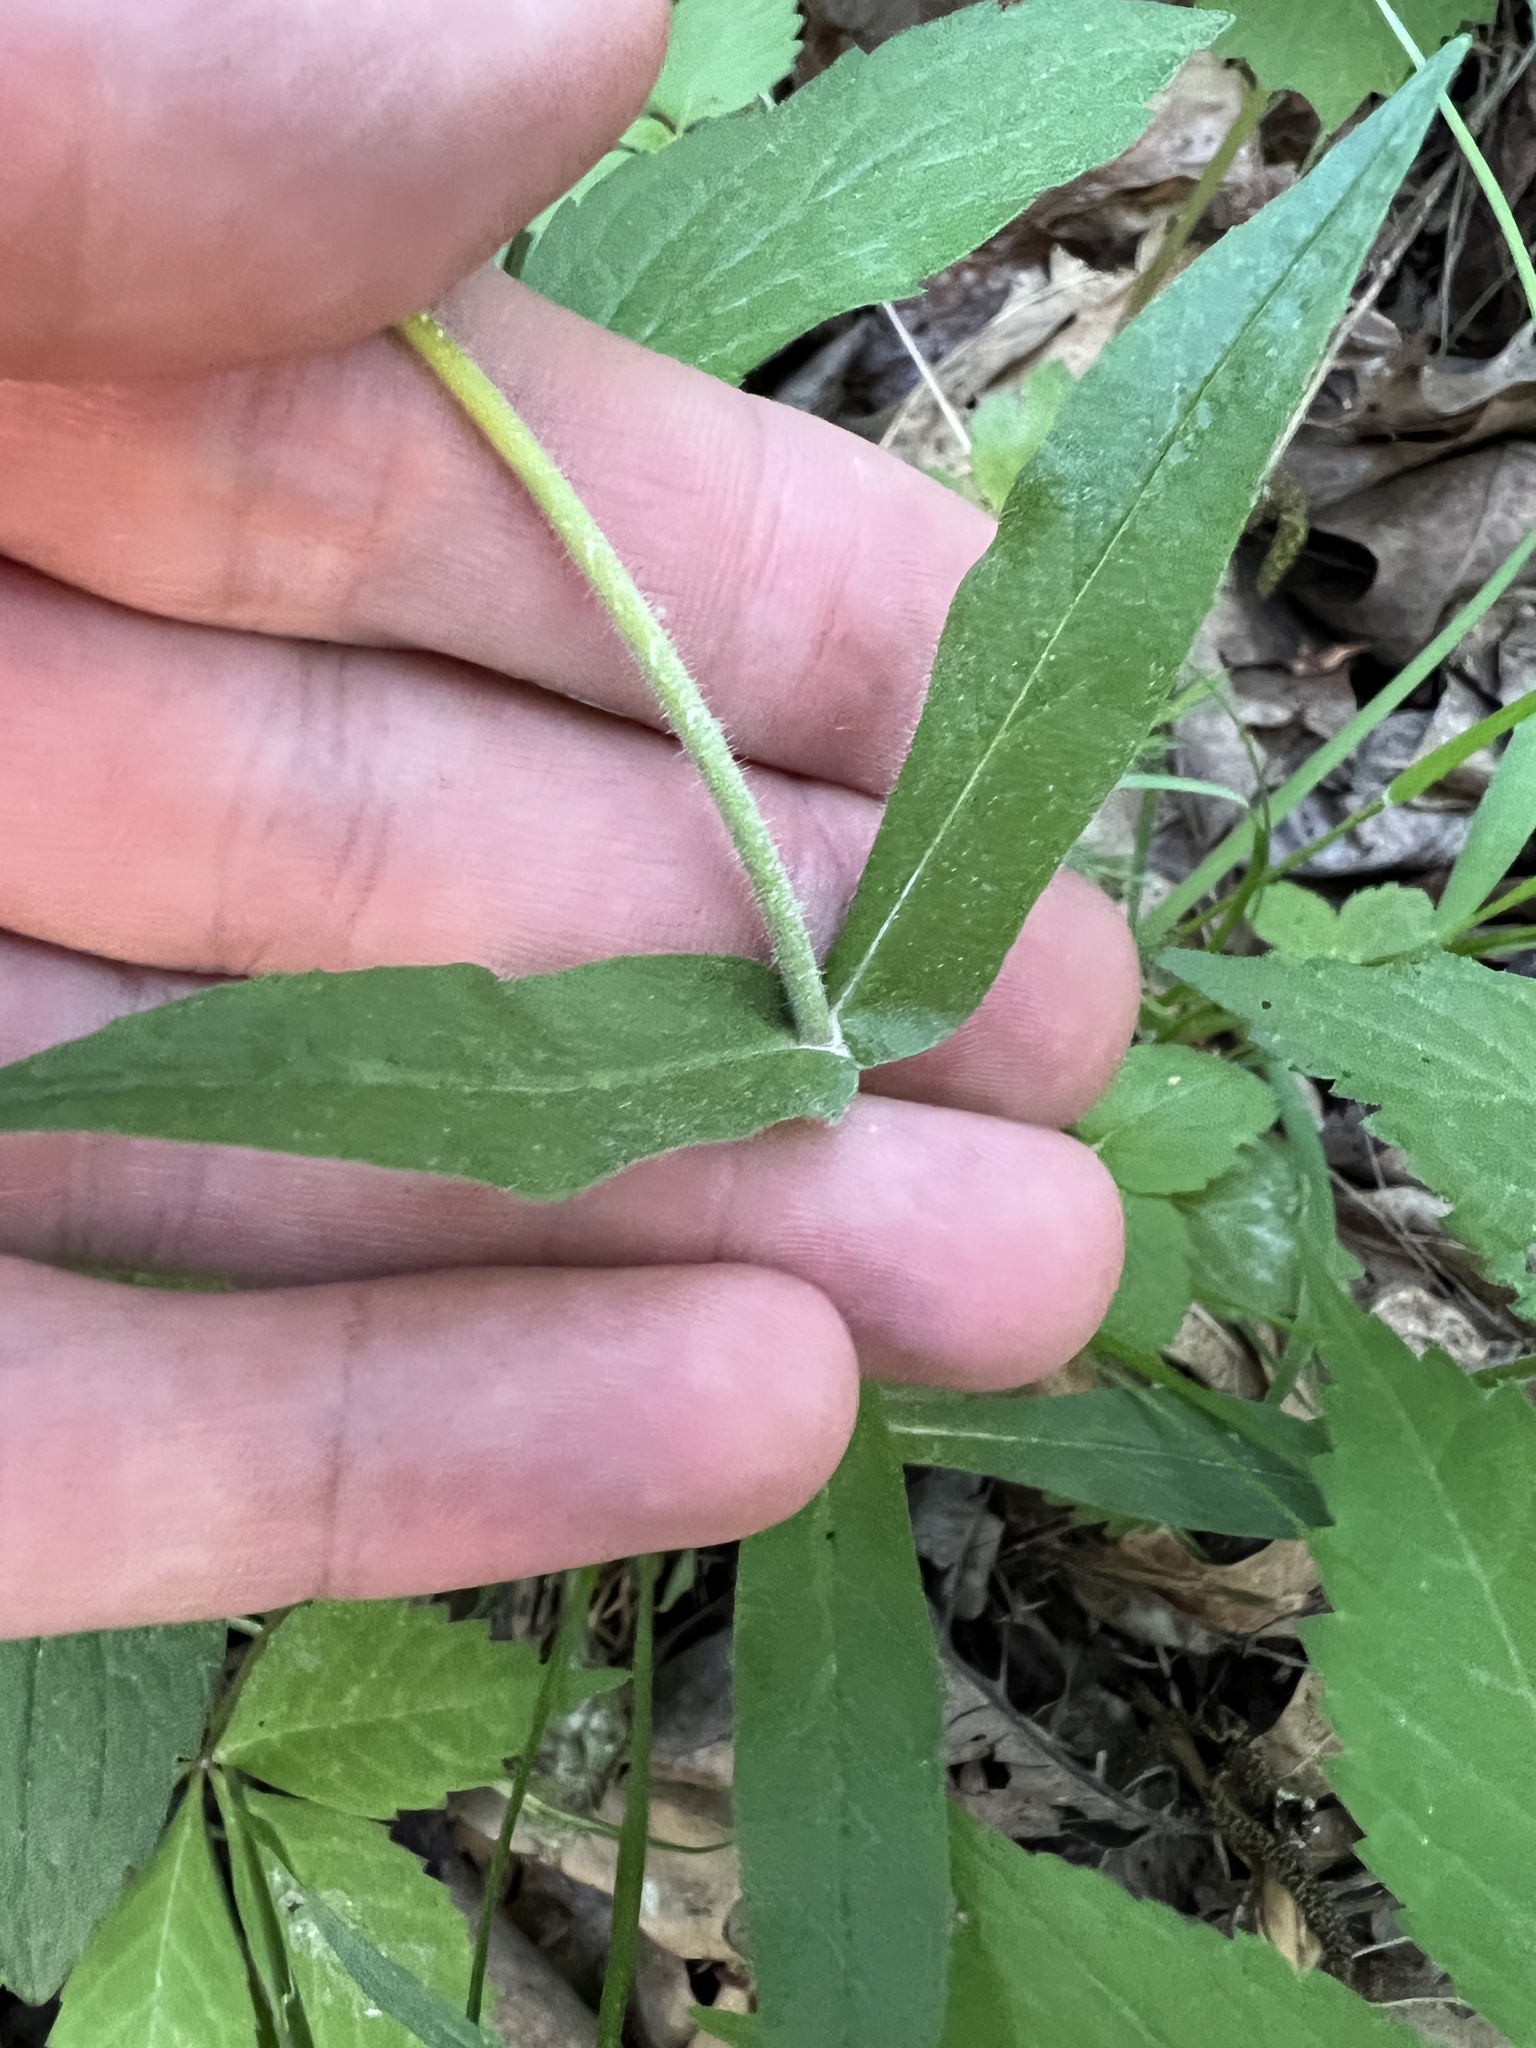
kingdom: Plantae
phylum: Tracheophyta
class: Magnoliopsida
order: Lamiales
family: Plantaginaceae
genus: Penstemon
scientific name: Penstemon pallidus
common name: Pale beardtongue
